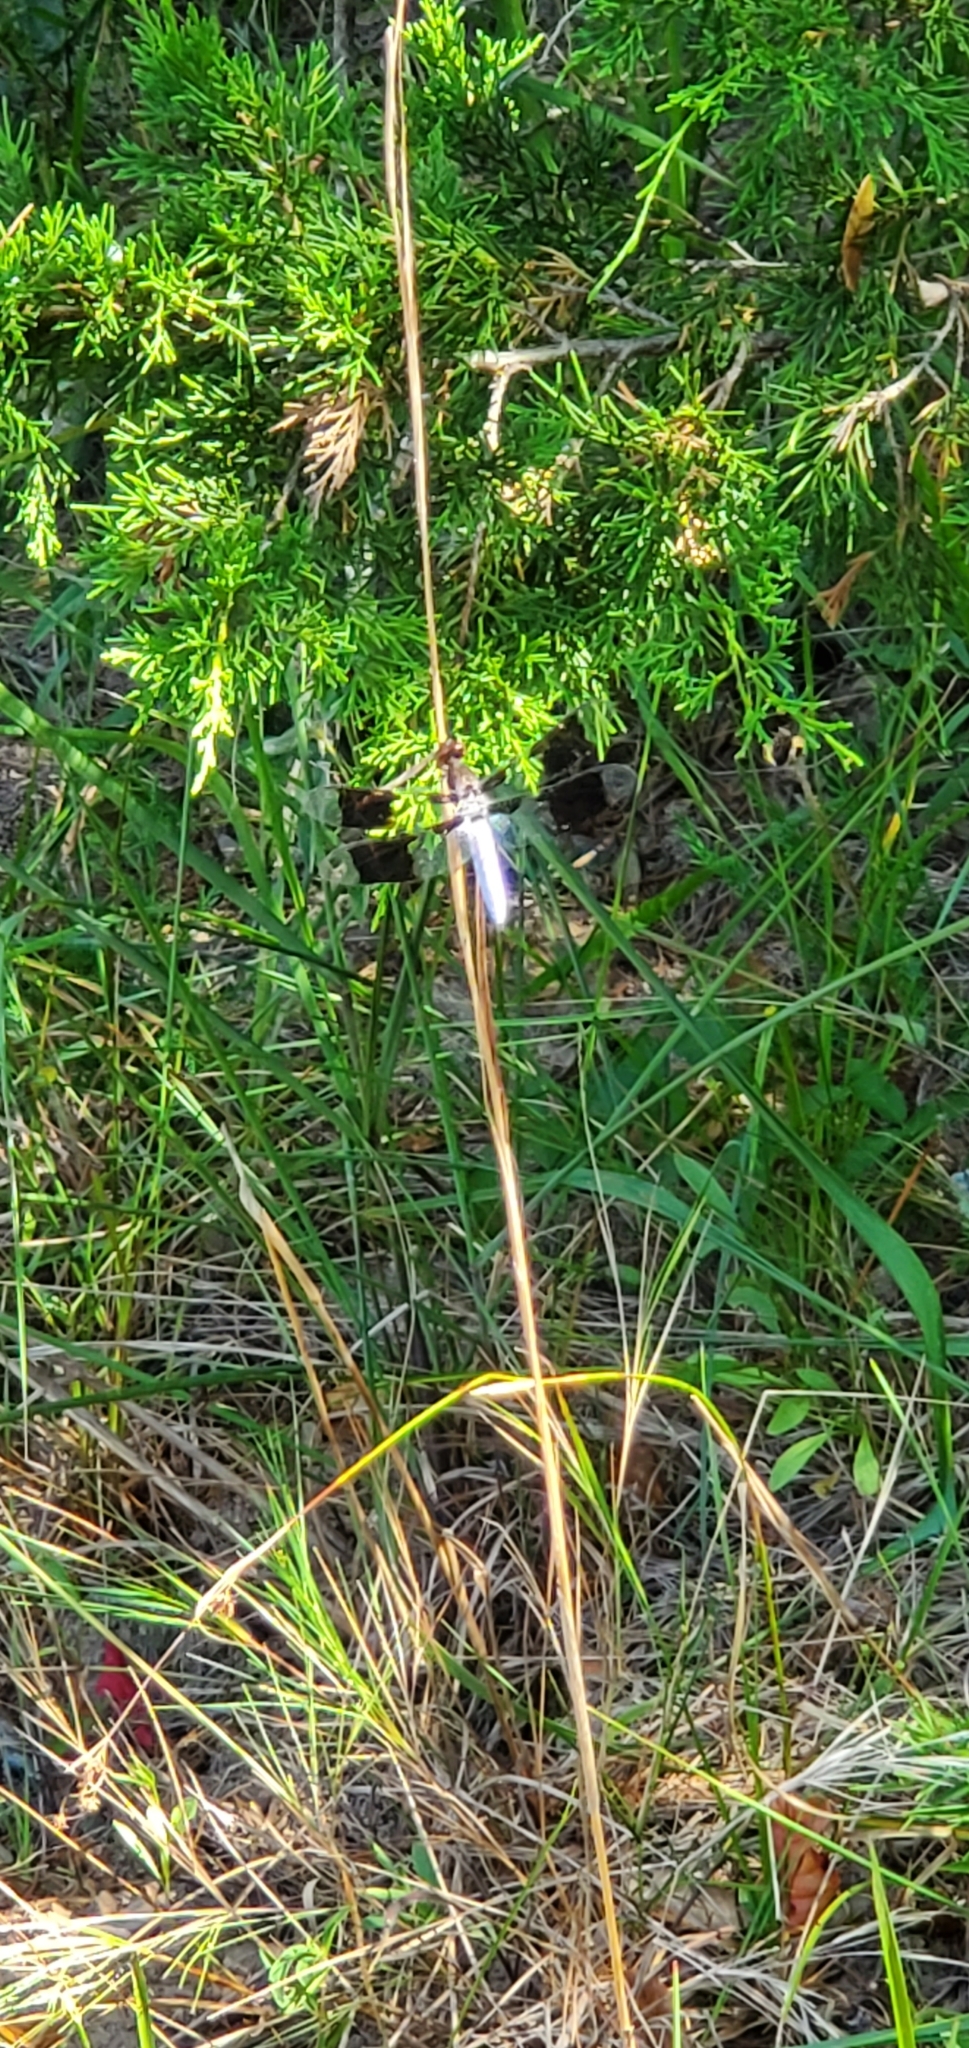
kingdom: Animalia
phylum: Arthropoda
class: Insecta
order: Odonata
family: Libellulidae
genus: Plathemis
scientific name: Plathemis lydia
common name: Common whitetail
